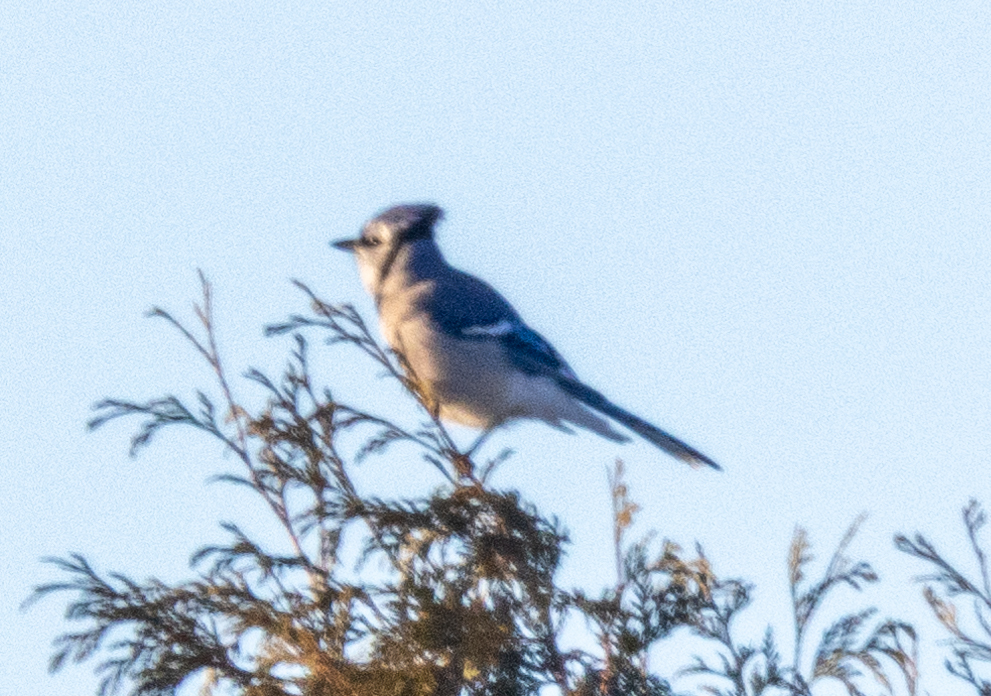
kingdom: Animalia
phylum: Chordata
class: Aves
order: Passeriformes
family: Corvidae
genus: Cyanocitta
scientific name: Cyanocitta cristata
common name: Blue jay
